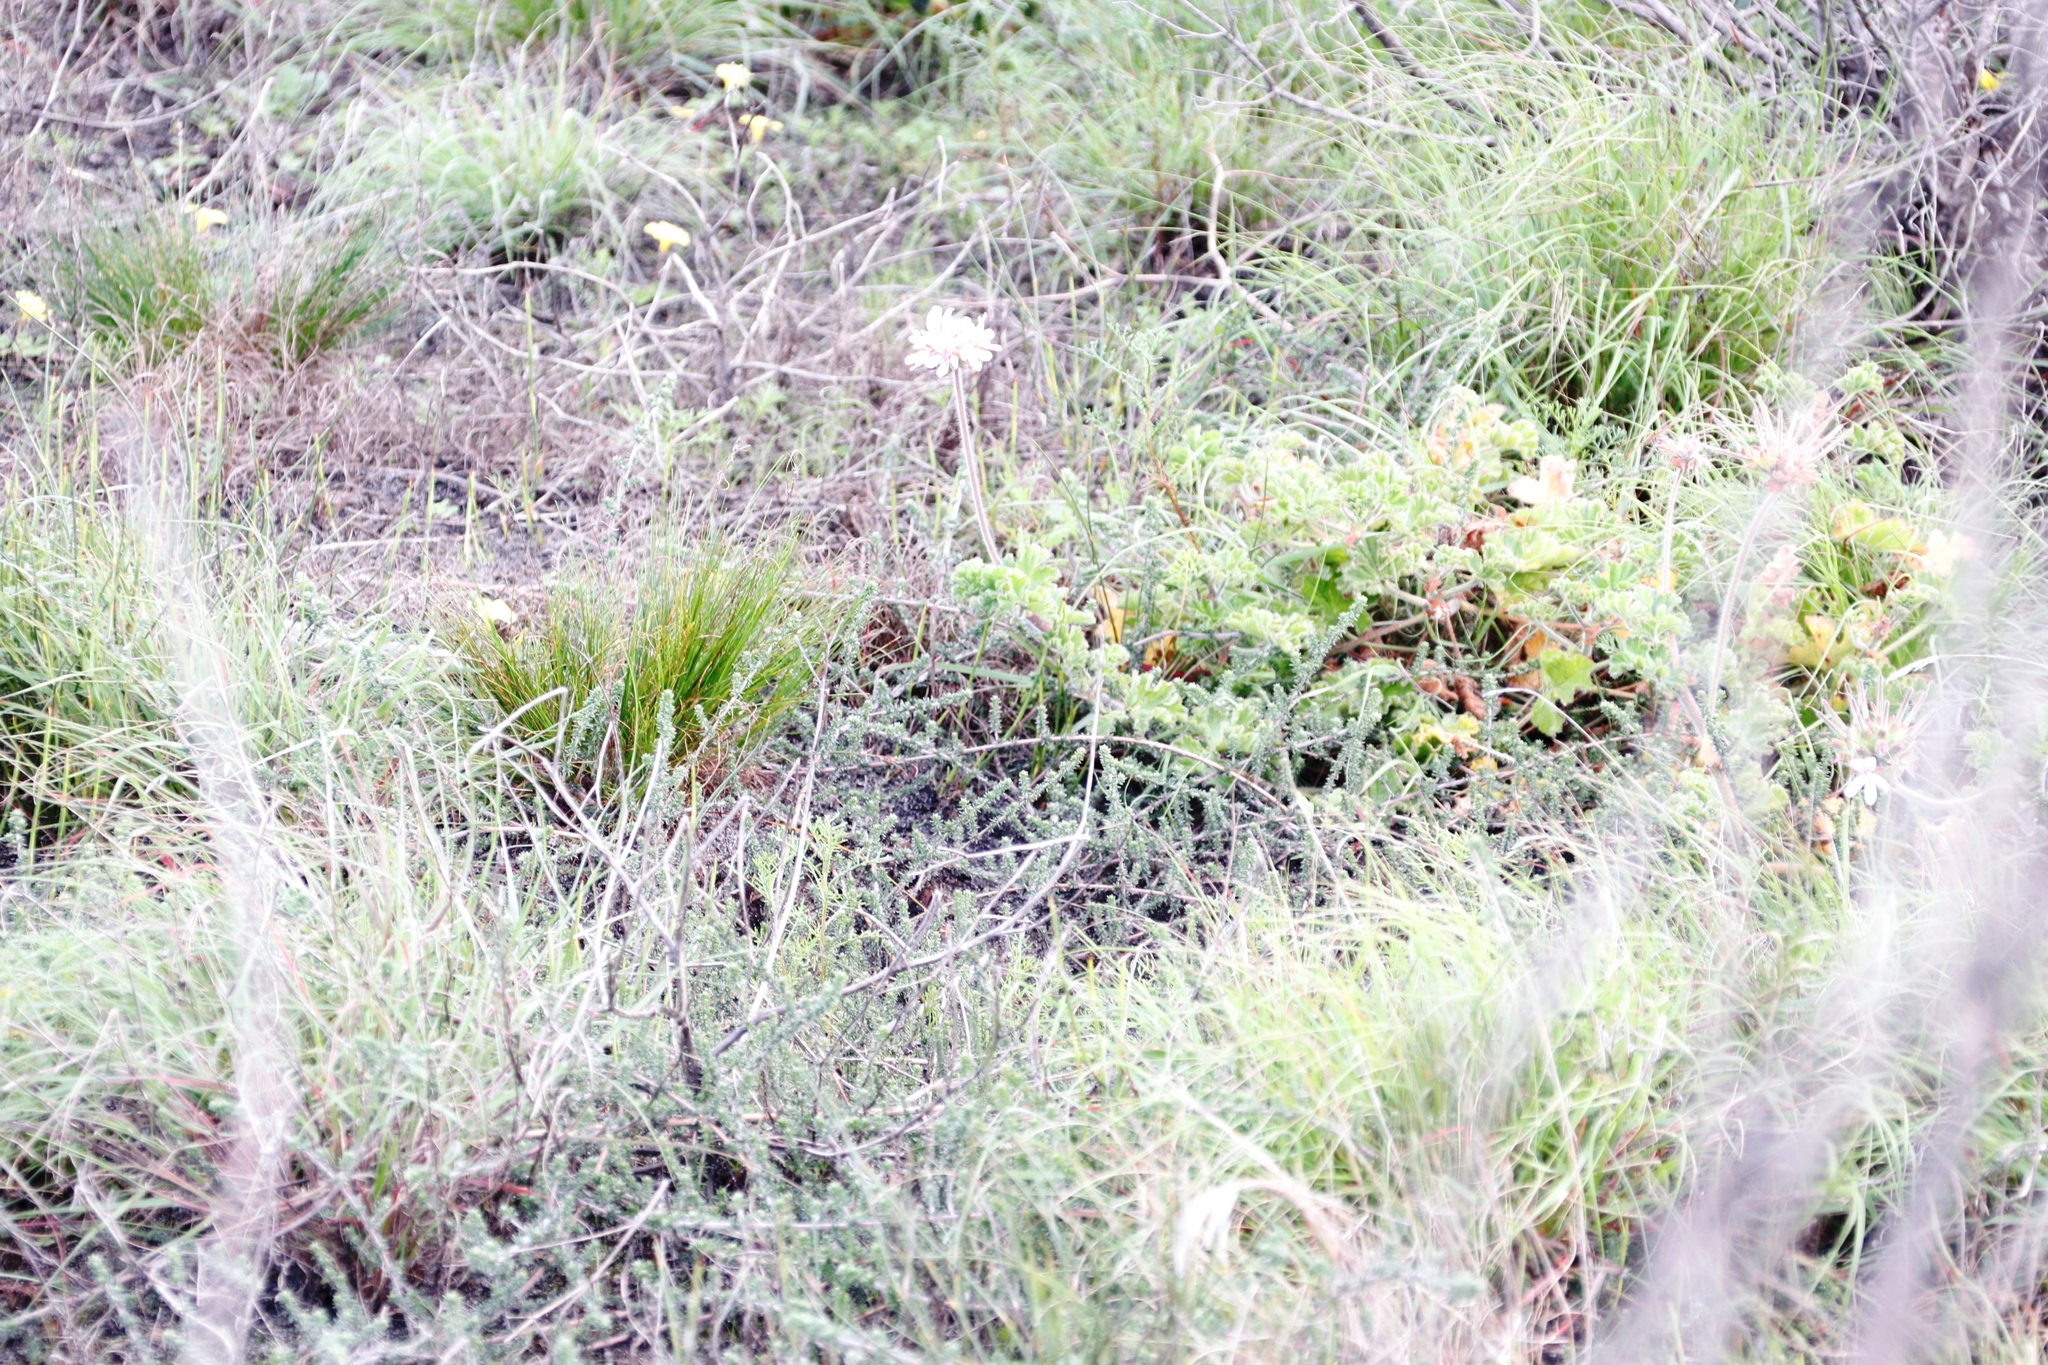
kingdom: Plantae
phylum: Tracheophyta
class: Magnoliopsida
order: Geraniales
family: Geraniaceae
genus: Pelargonium
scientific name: Pelargonium capitatum
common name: Rose scented geranium
